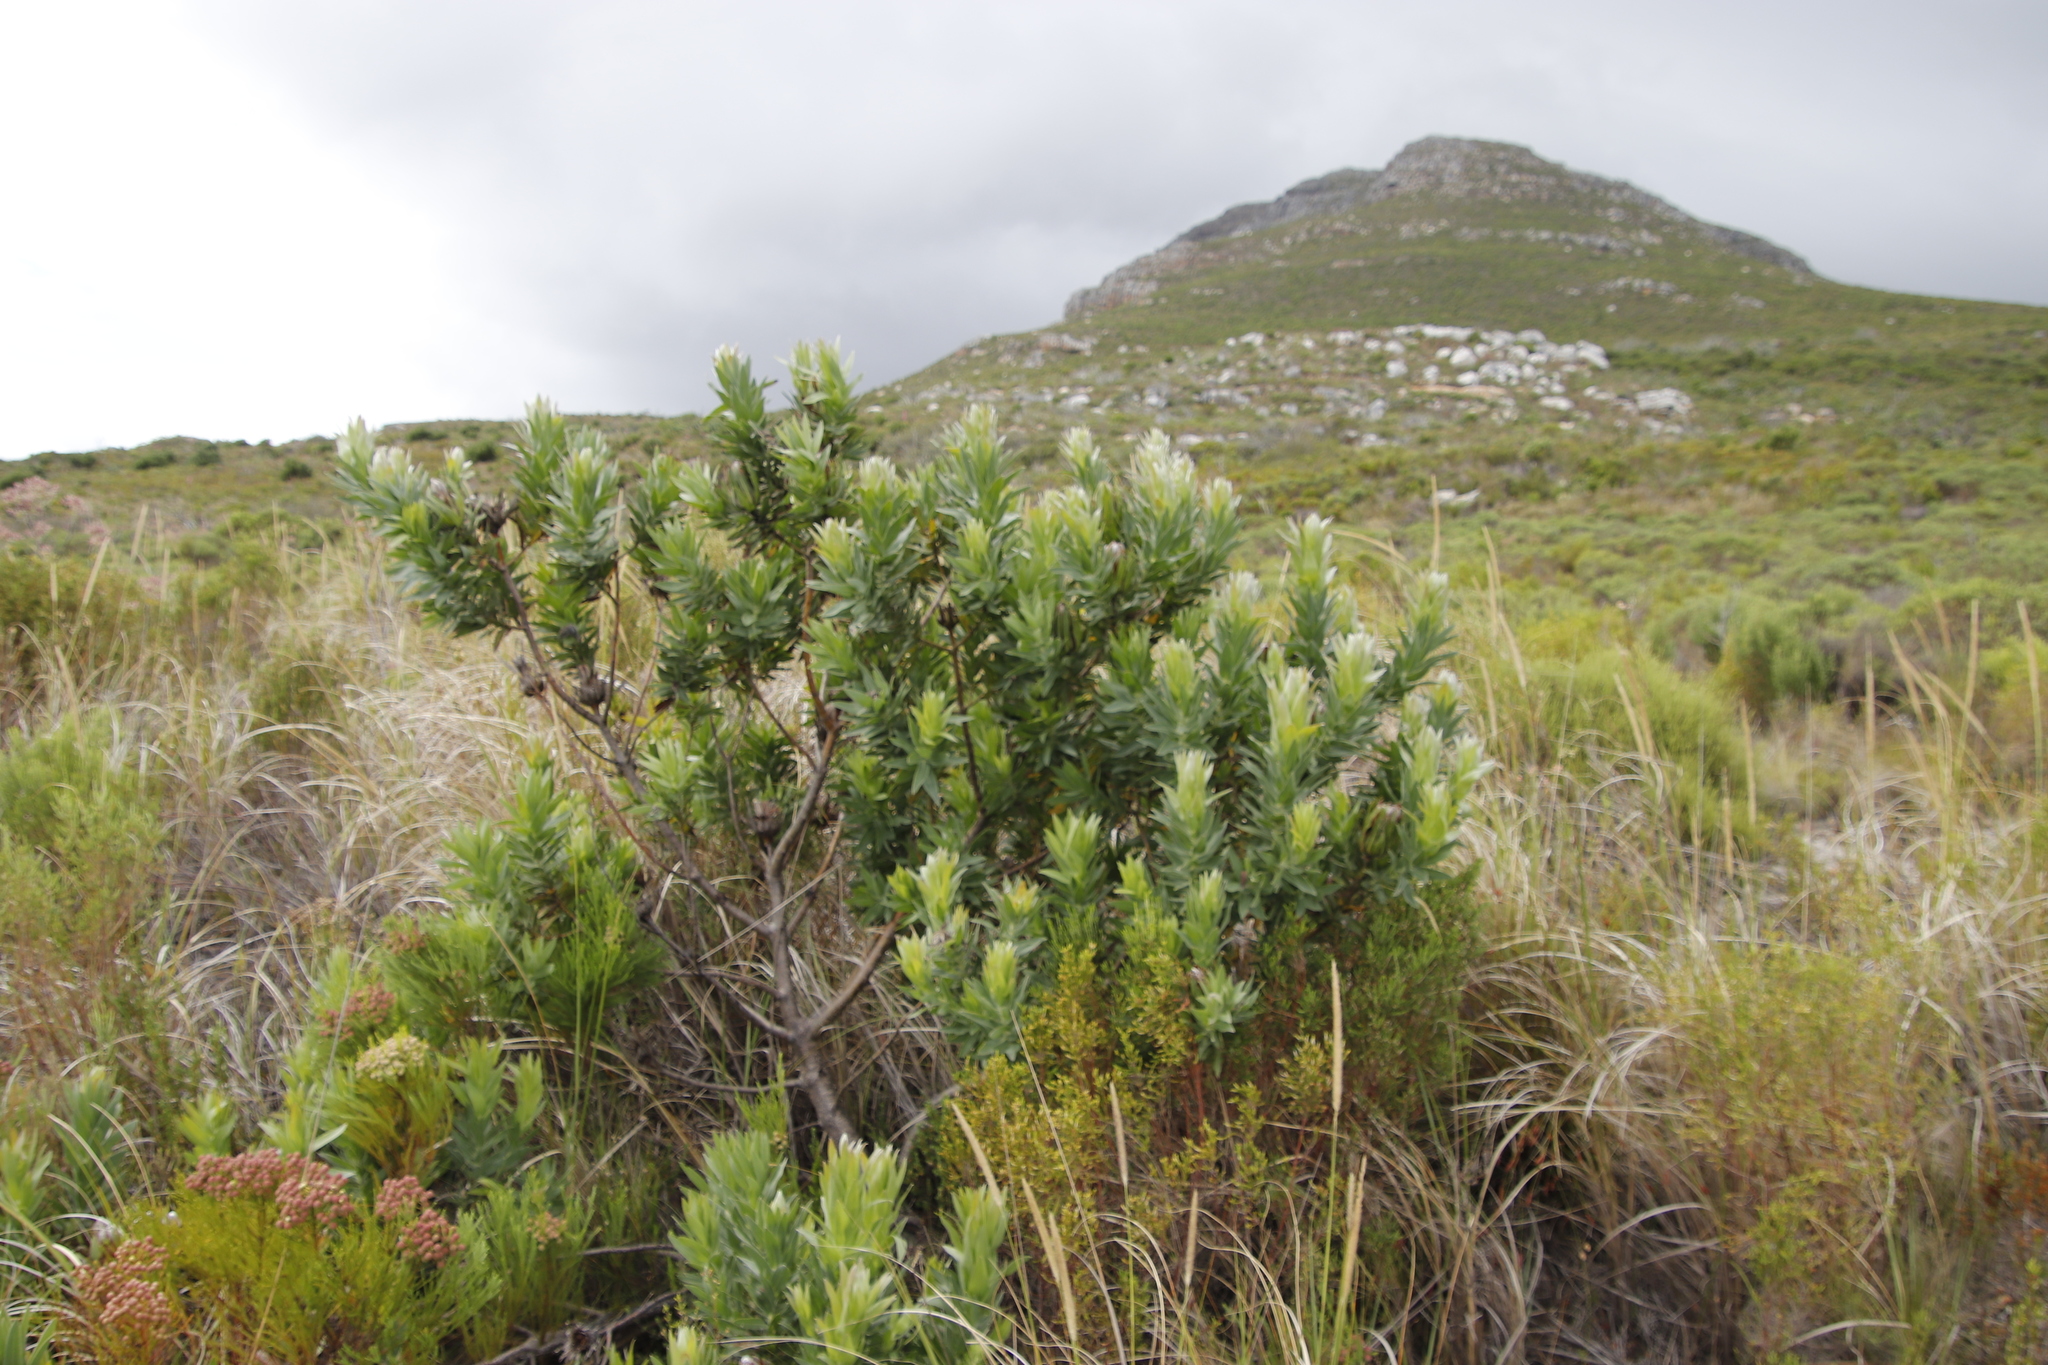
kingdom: Plantae
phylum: Tracheophyta
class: Magnoliopsida
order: Proteales
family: Proteaceae
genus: Protea
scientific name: Protea coronata
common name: Green sugarbush
